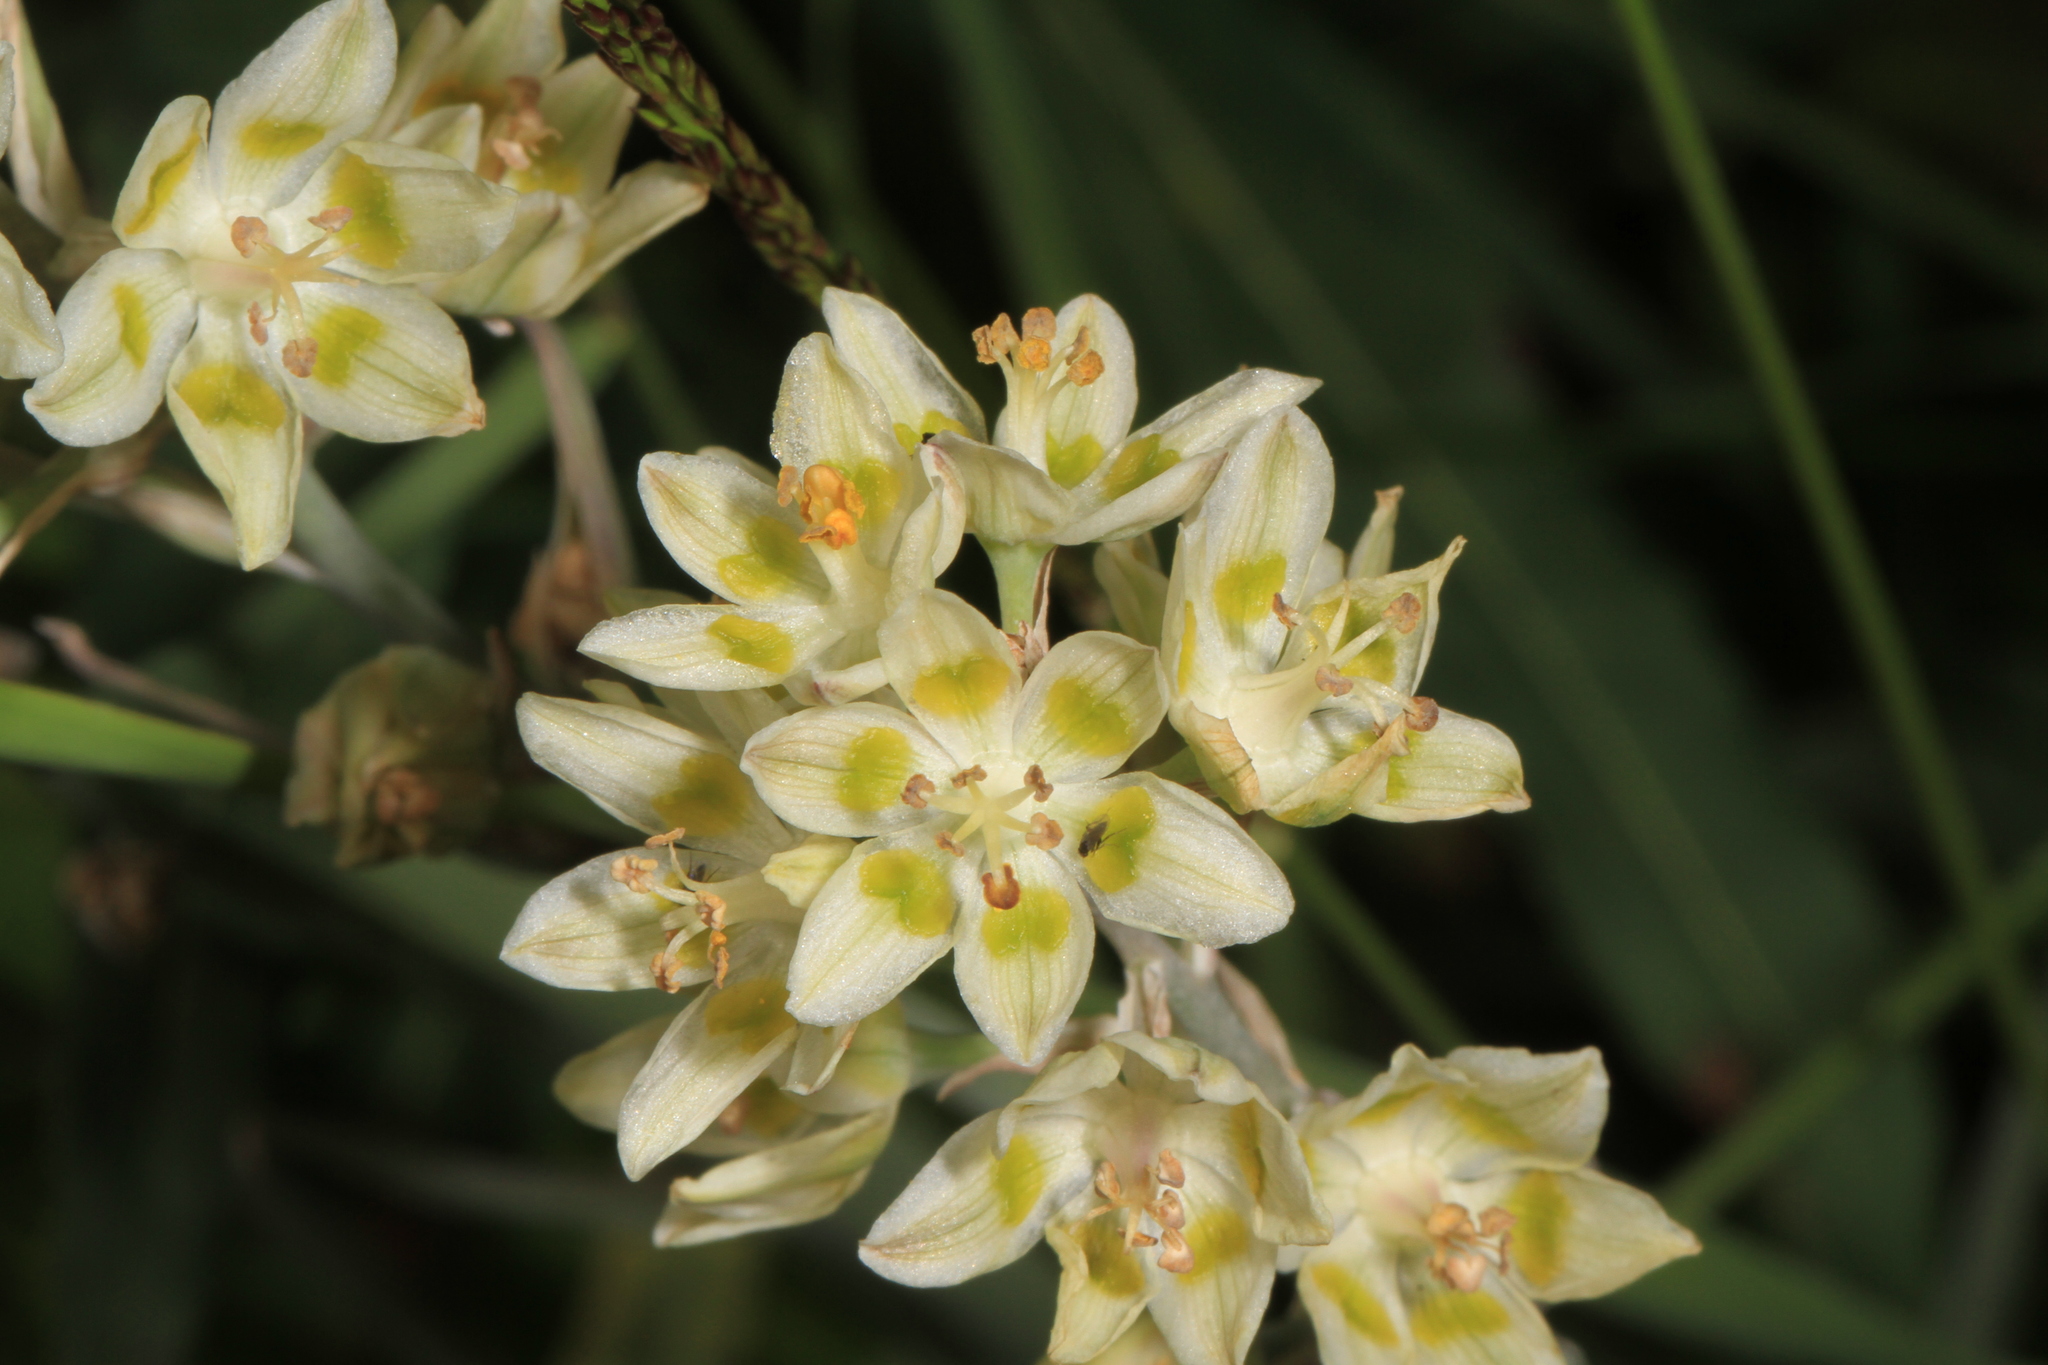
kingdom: Plantae
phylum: Tracheophyta
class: Liliopsida
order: Liliales
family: Melanthiaceae
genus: Anticlea
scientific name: Anticlea elegans
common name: Mountain death camas
